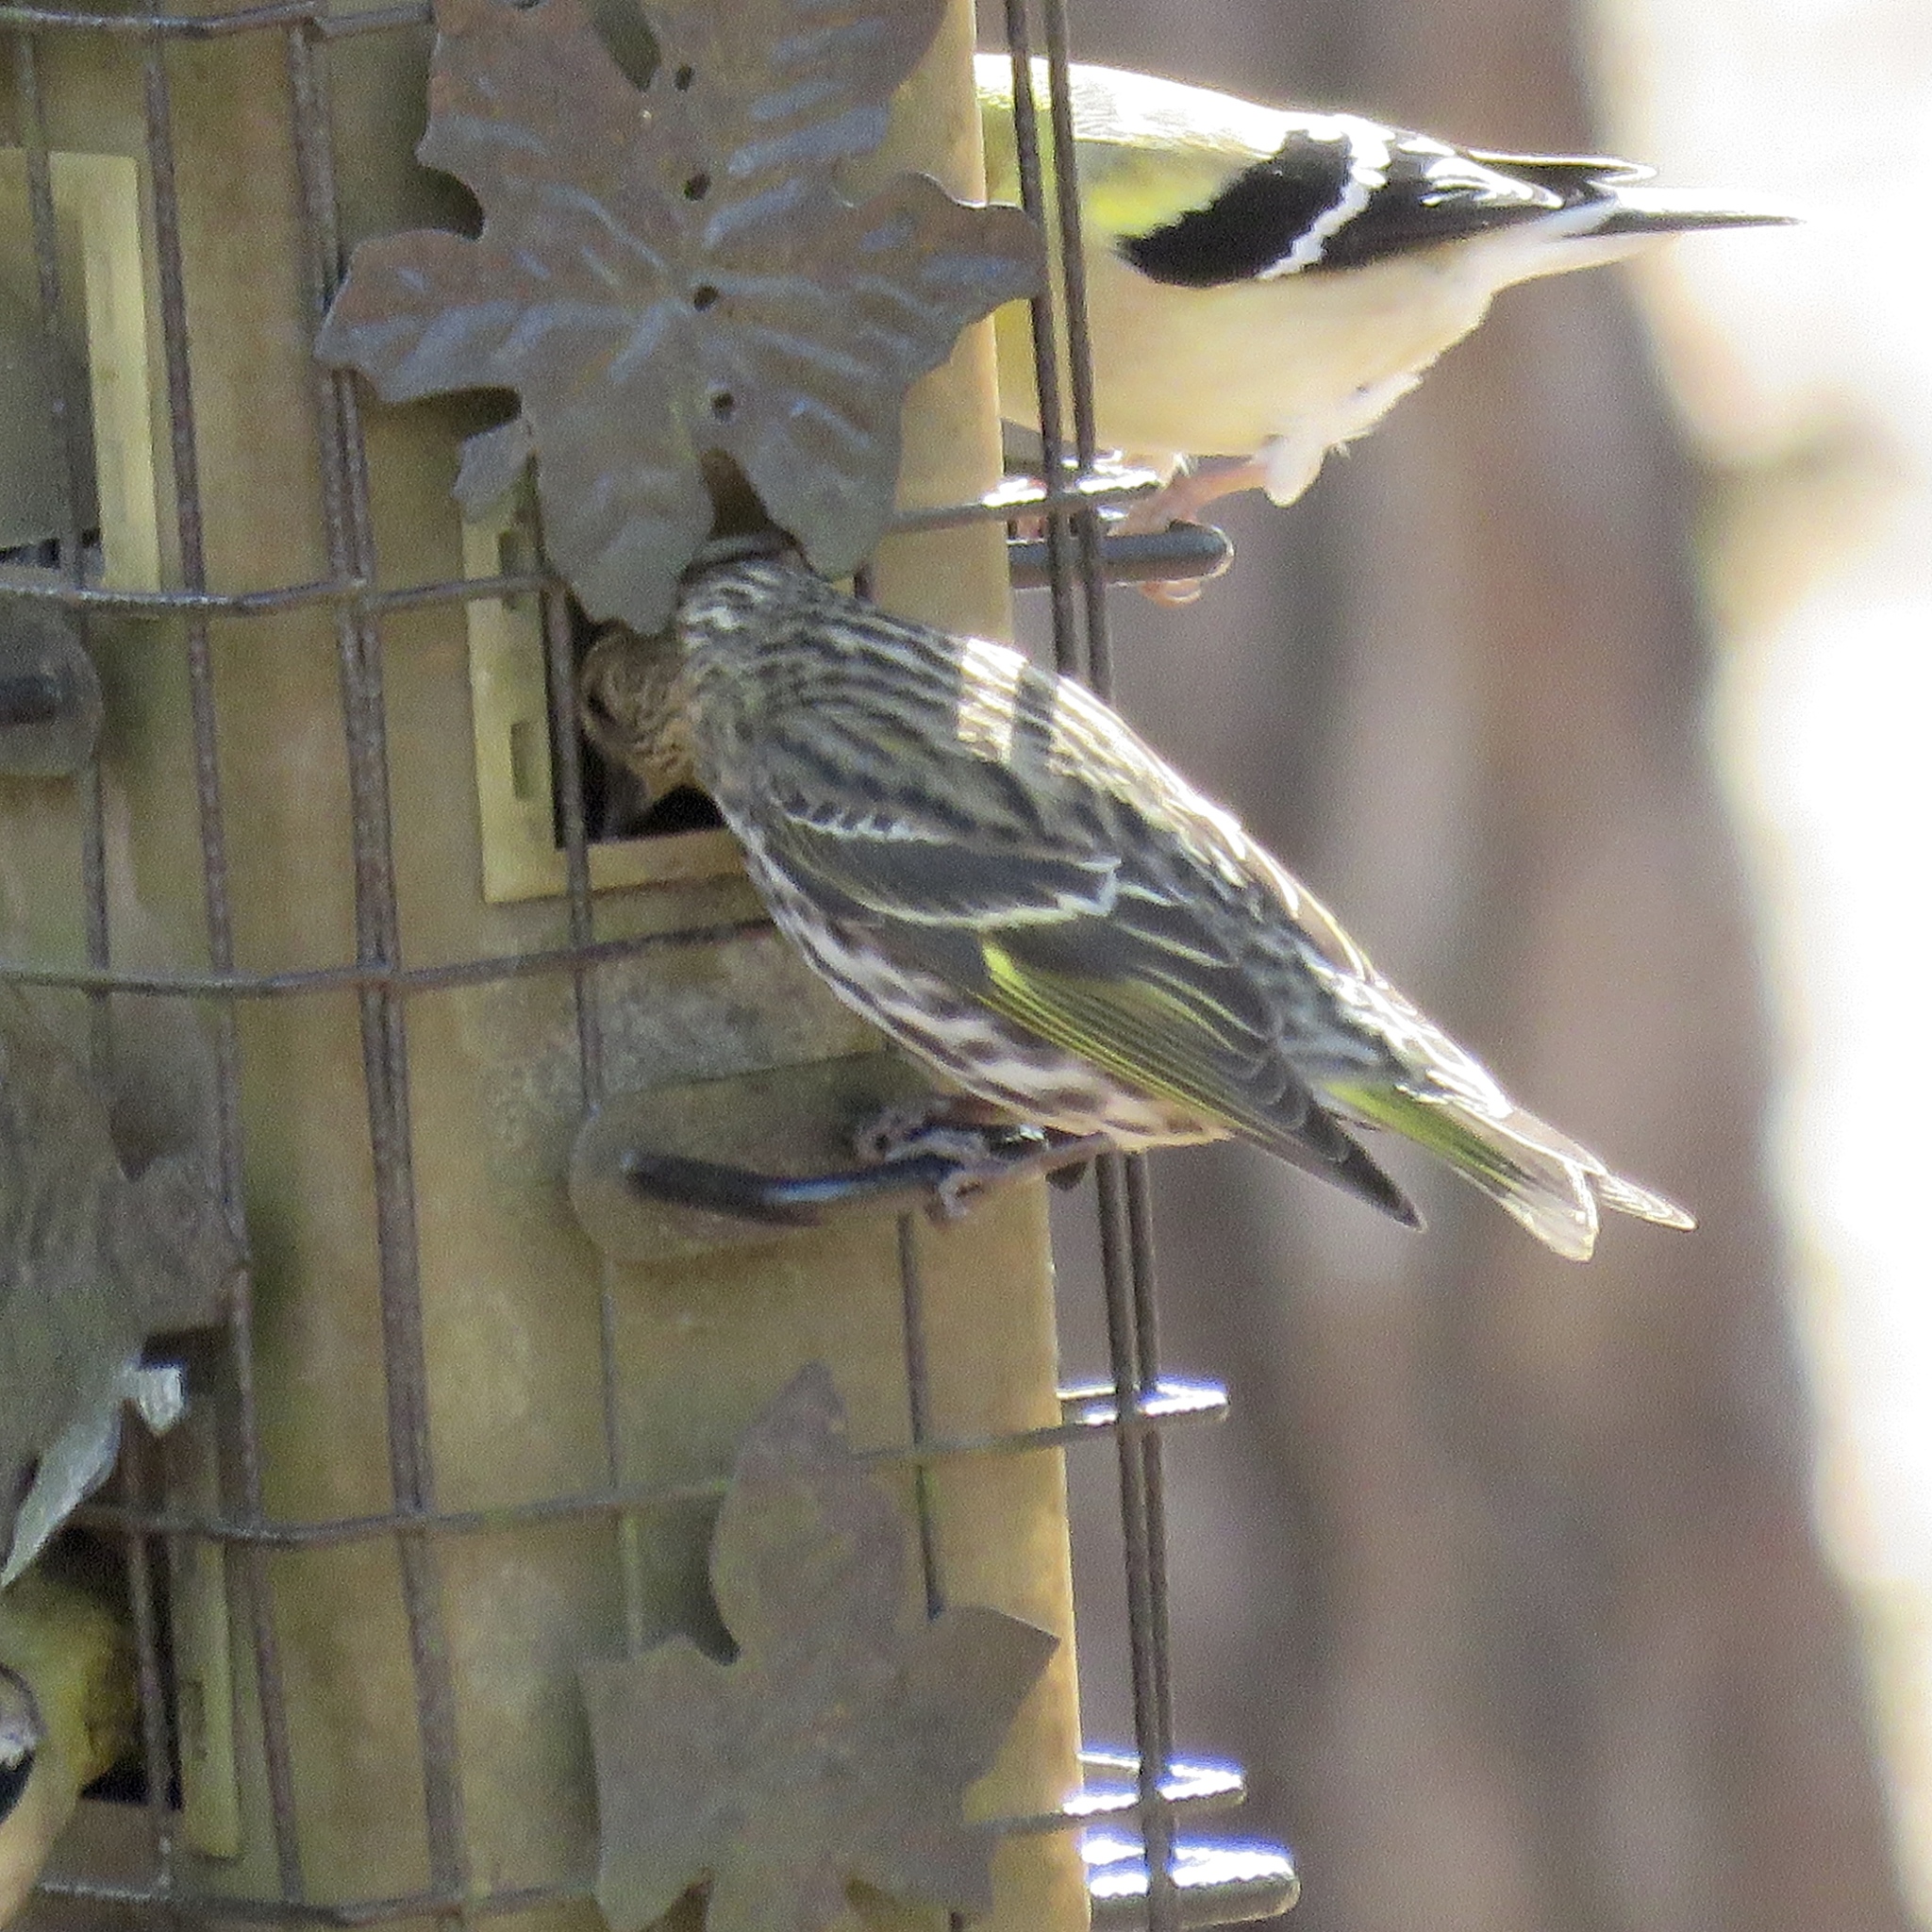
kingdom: Animalia
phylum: Chordata
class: Aves
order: Passeriformes
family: Fringillidae
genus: Spinus
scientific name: Spinus pinus
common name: Pine siskin
